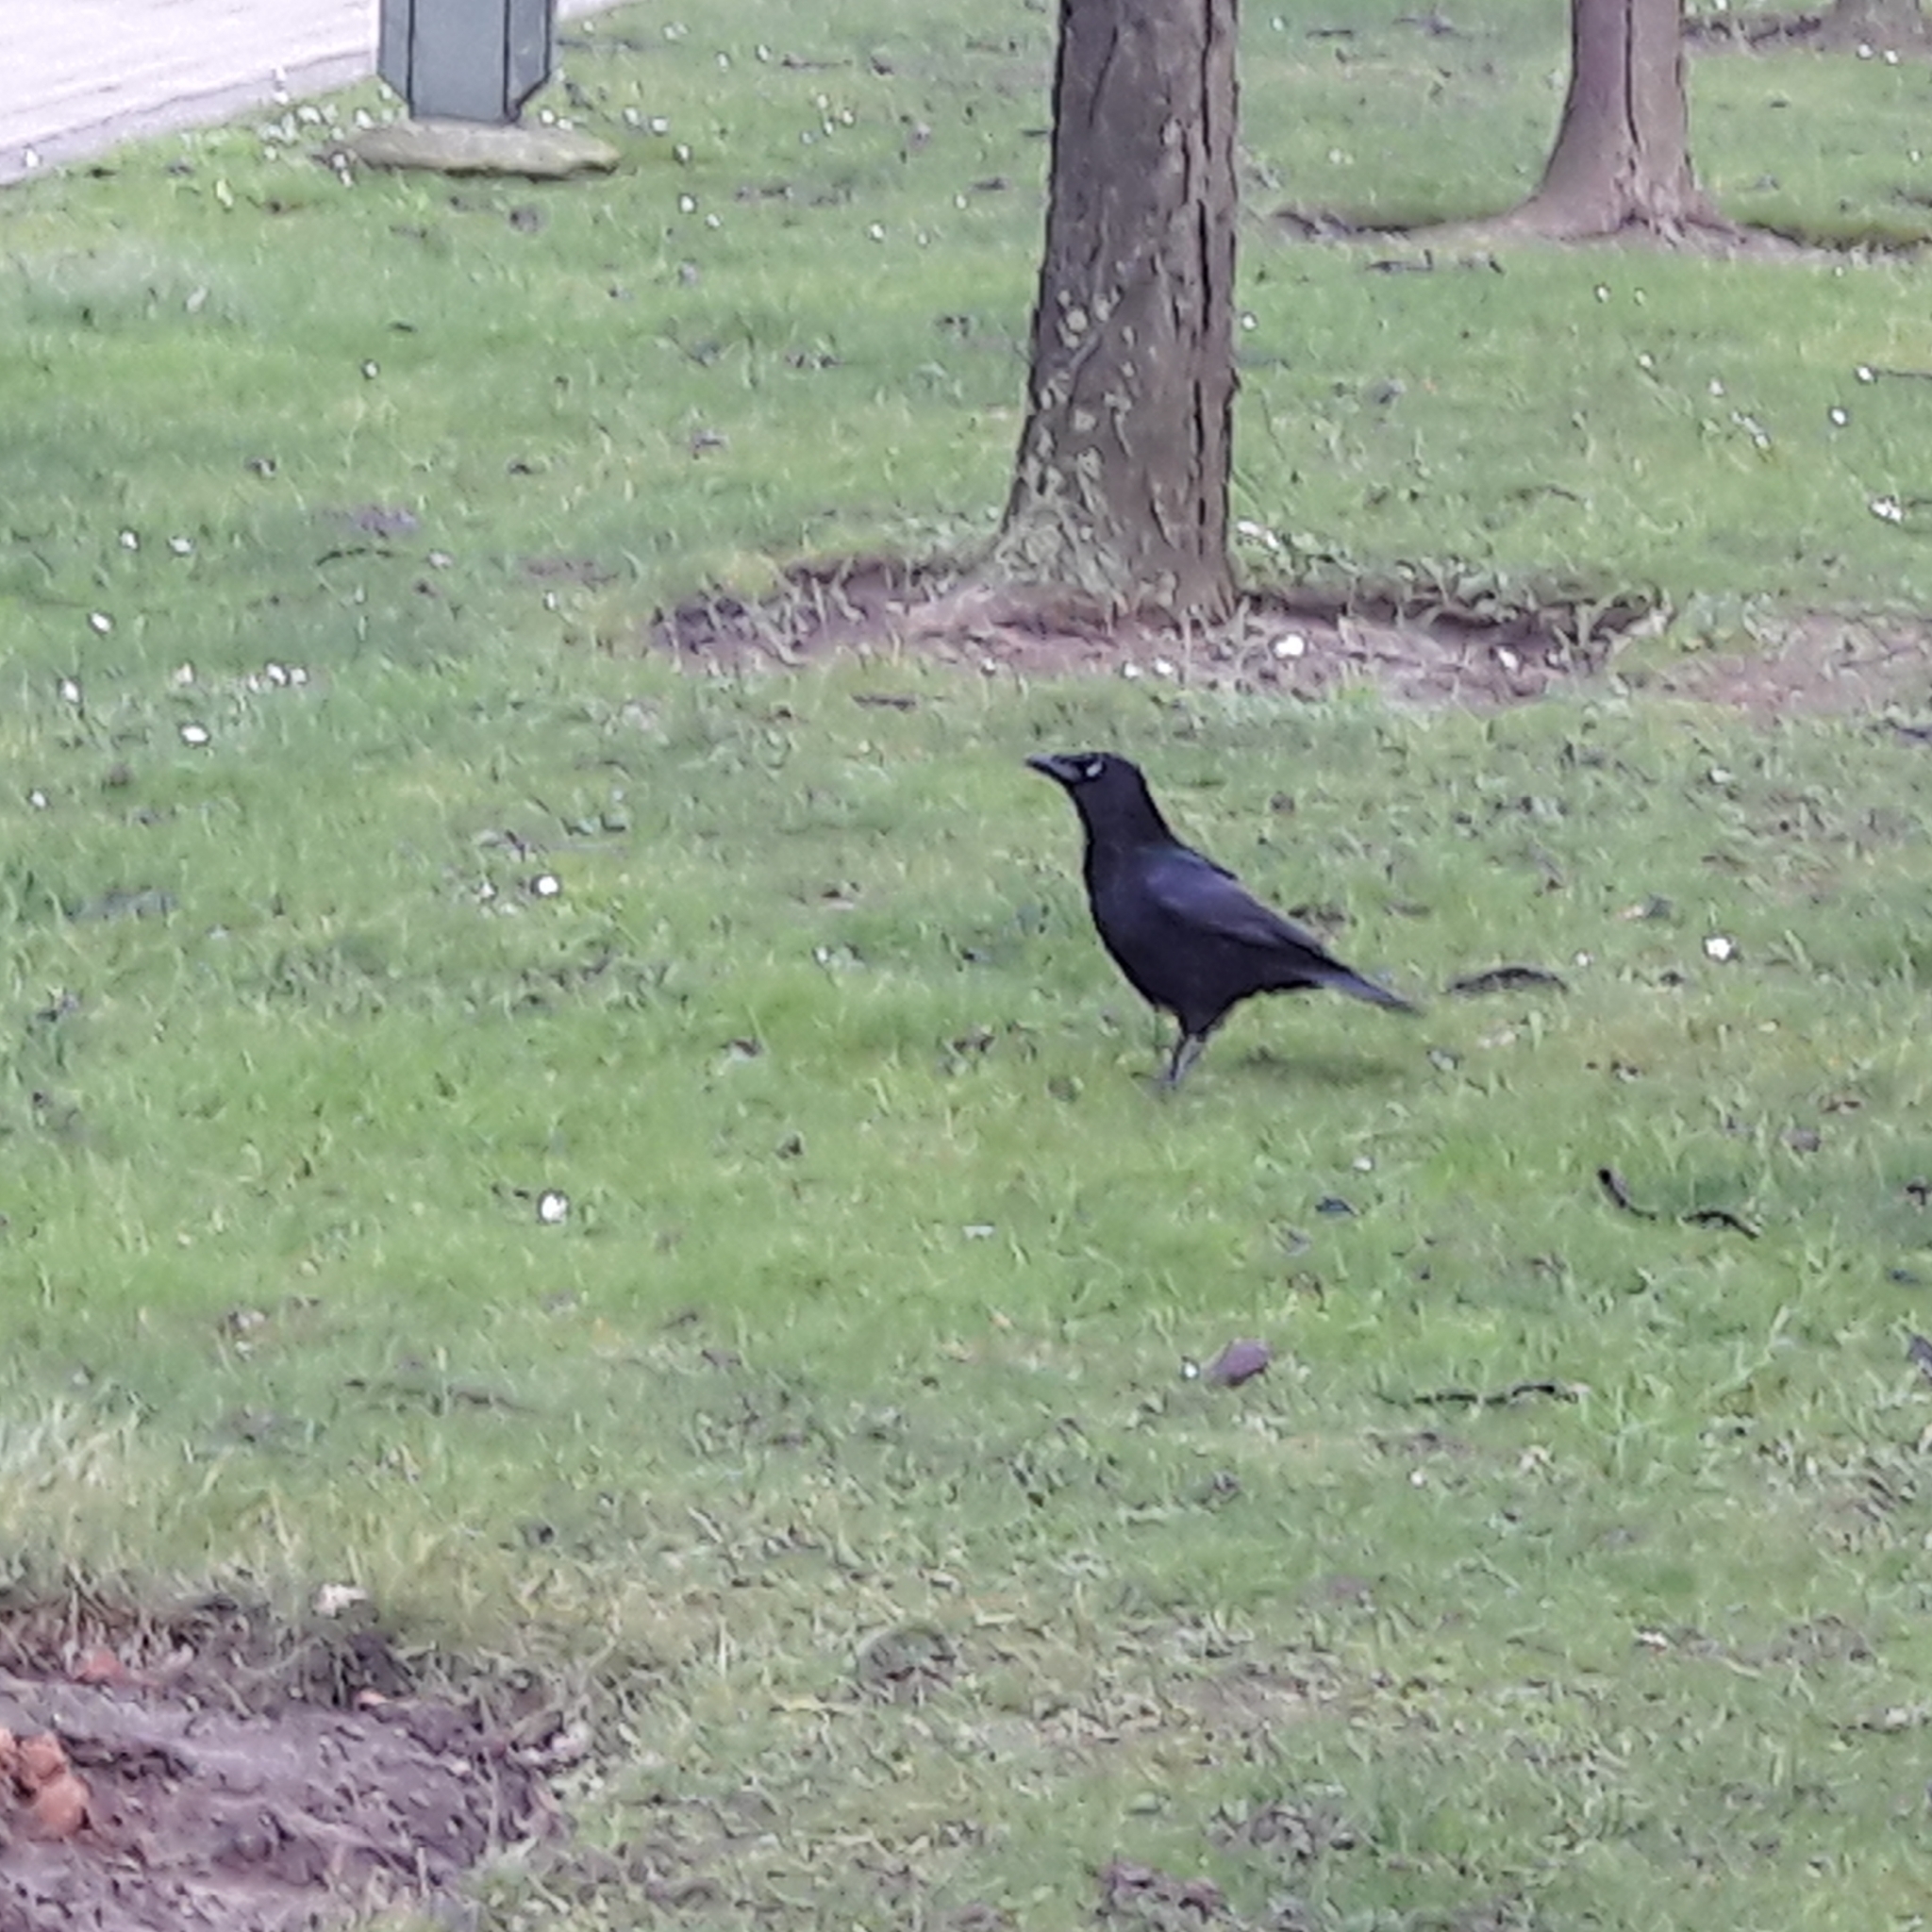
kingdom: Animalia
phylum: Chordata
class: Aves
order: Passeriformes
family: Corvidae
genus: Corvus
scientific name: Corvus corone
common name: Carrion crow
